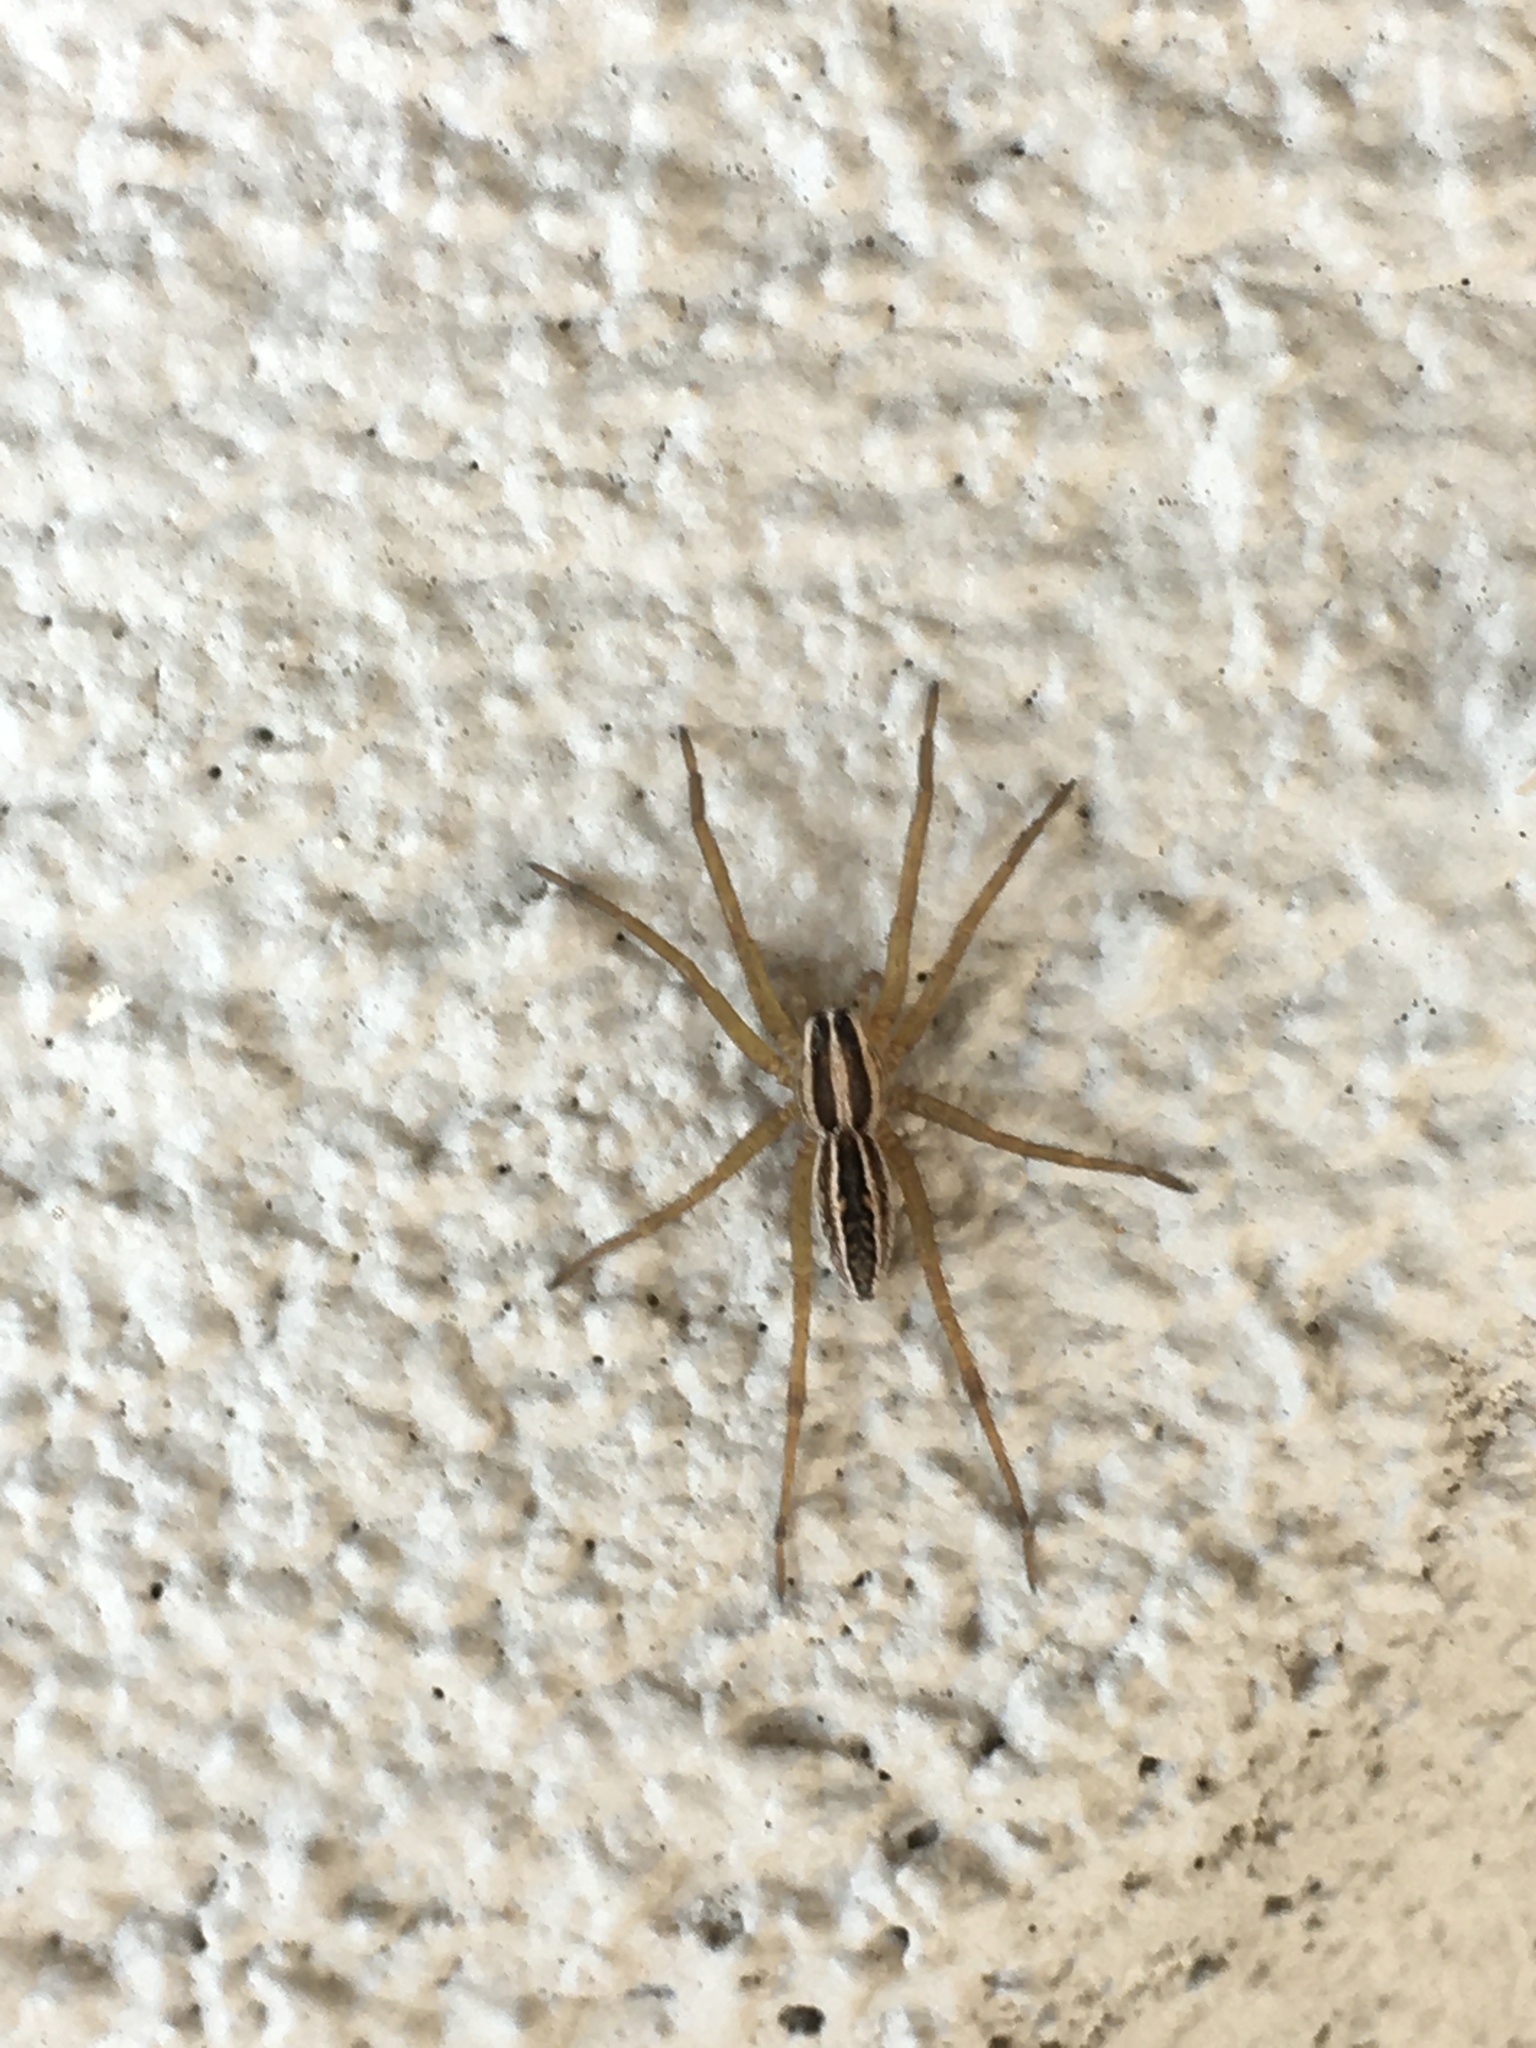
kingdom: Animalia
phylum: Arthropoda
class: Arachnida
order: Araneae
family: Lycosidae
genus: Rabidosa
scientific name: Rabidosa rabida
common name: Rabid wolf spider
